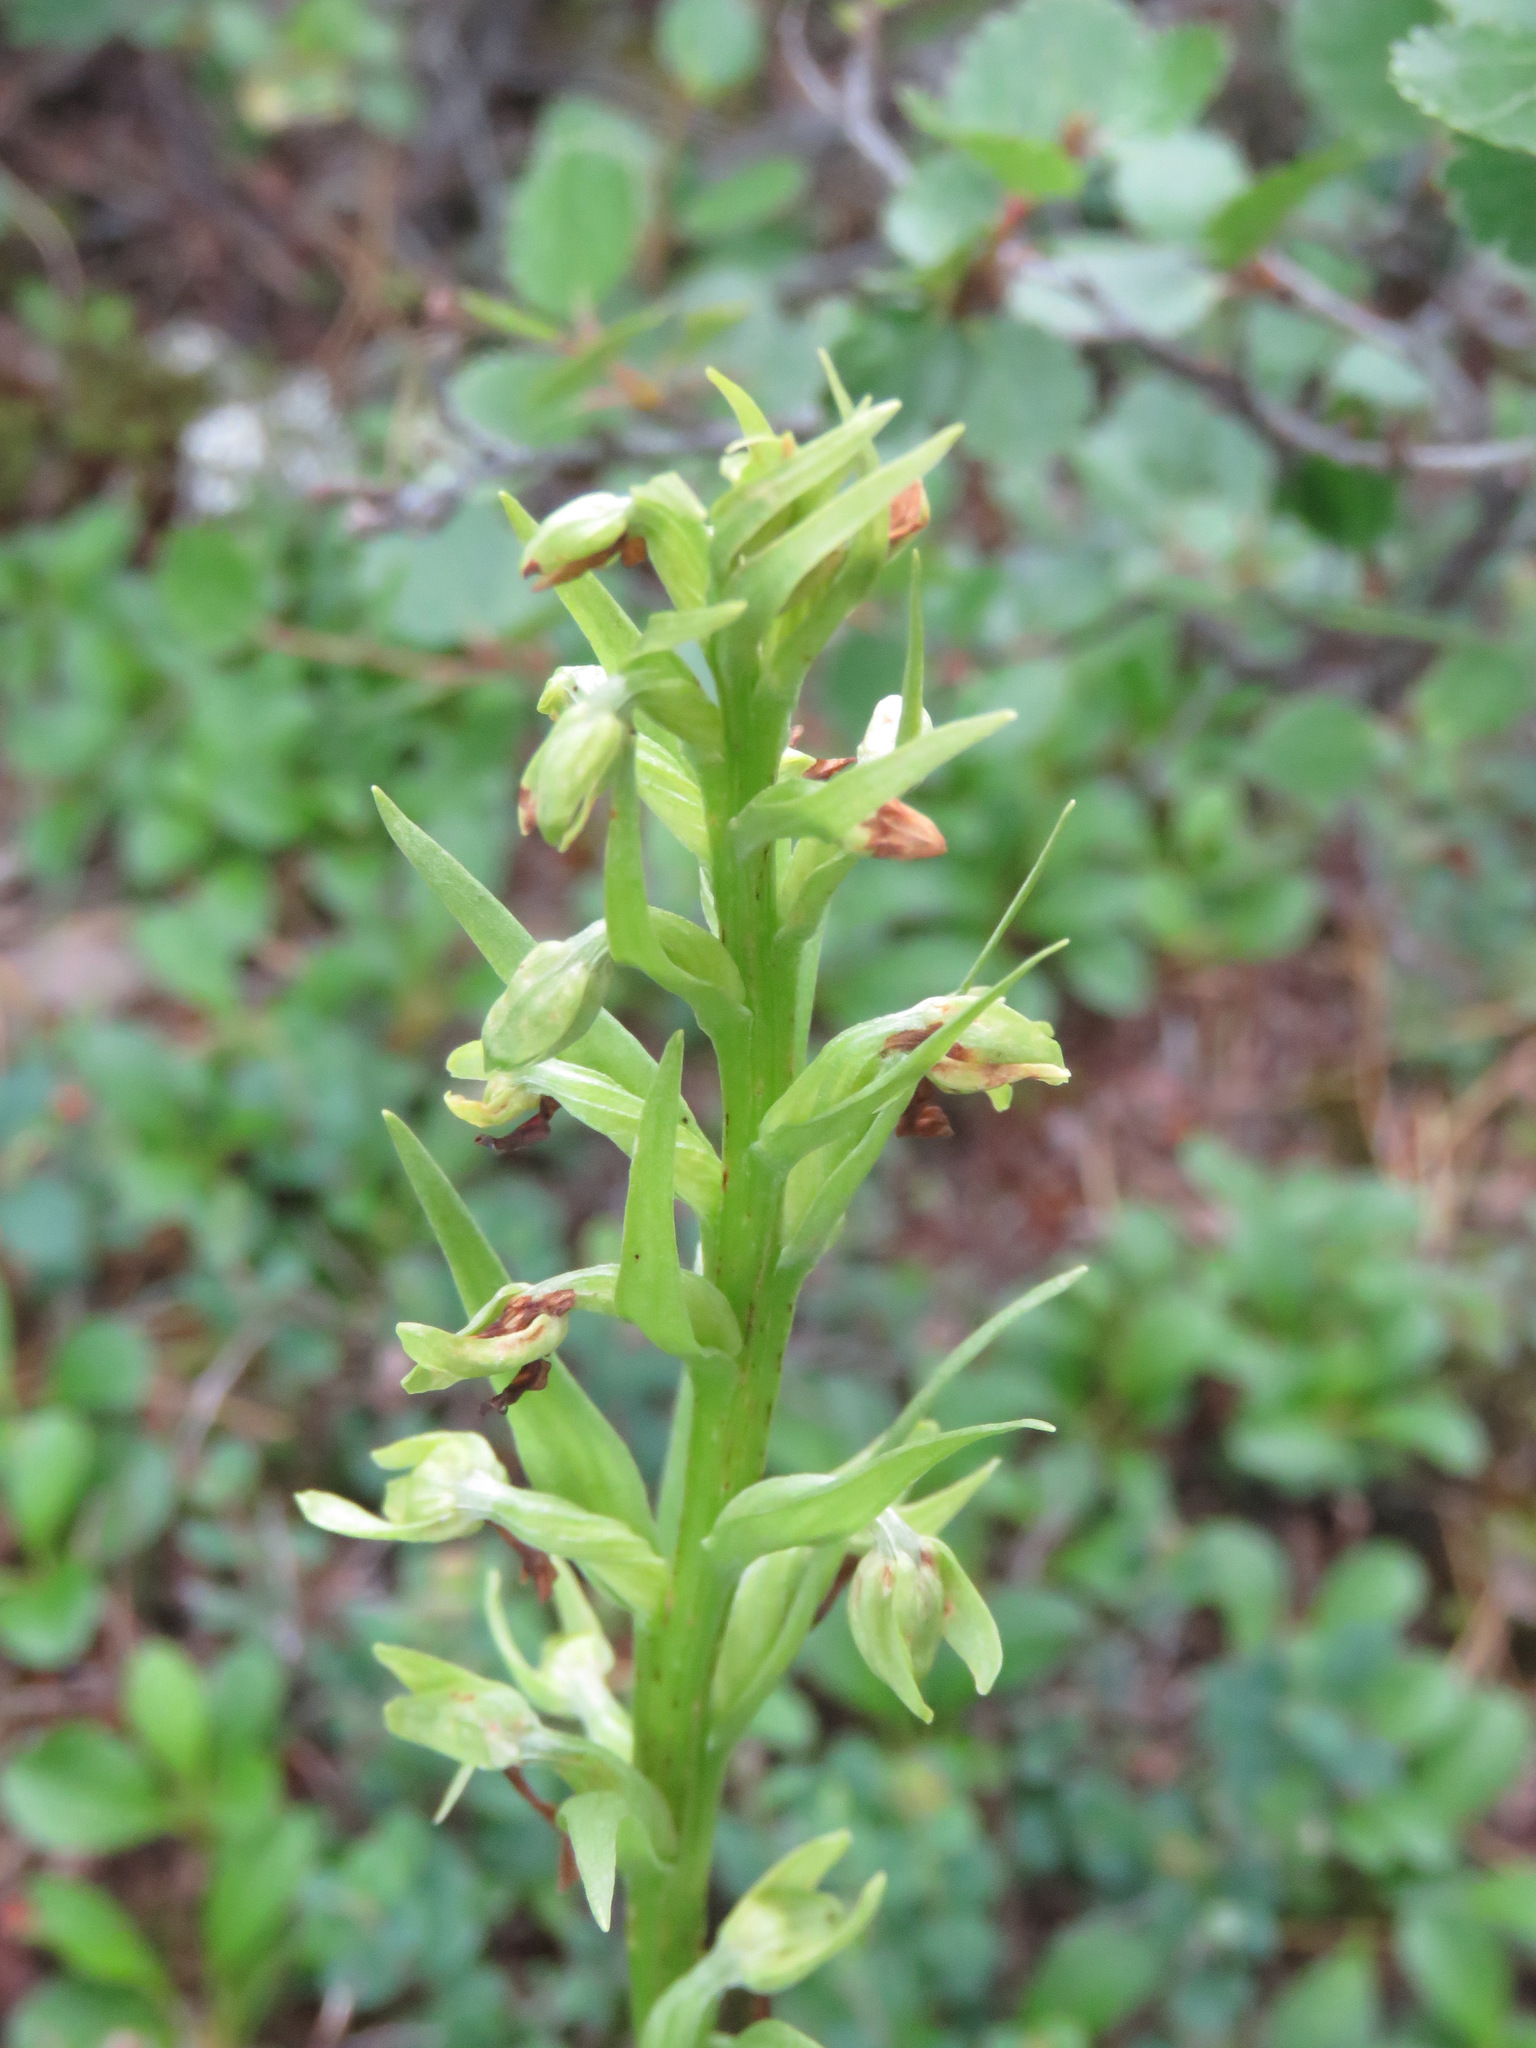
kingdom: Plantae
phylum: Tracheophyta
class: Liliopsida
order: Asparagales
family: Orchidaceae
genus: Dactylorhiza
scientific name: Dactylorhiza viridis
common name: Longbract frog orchid
